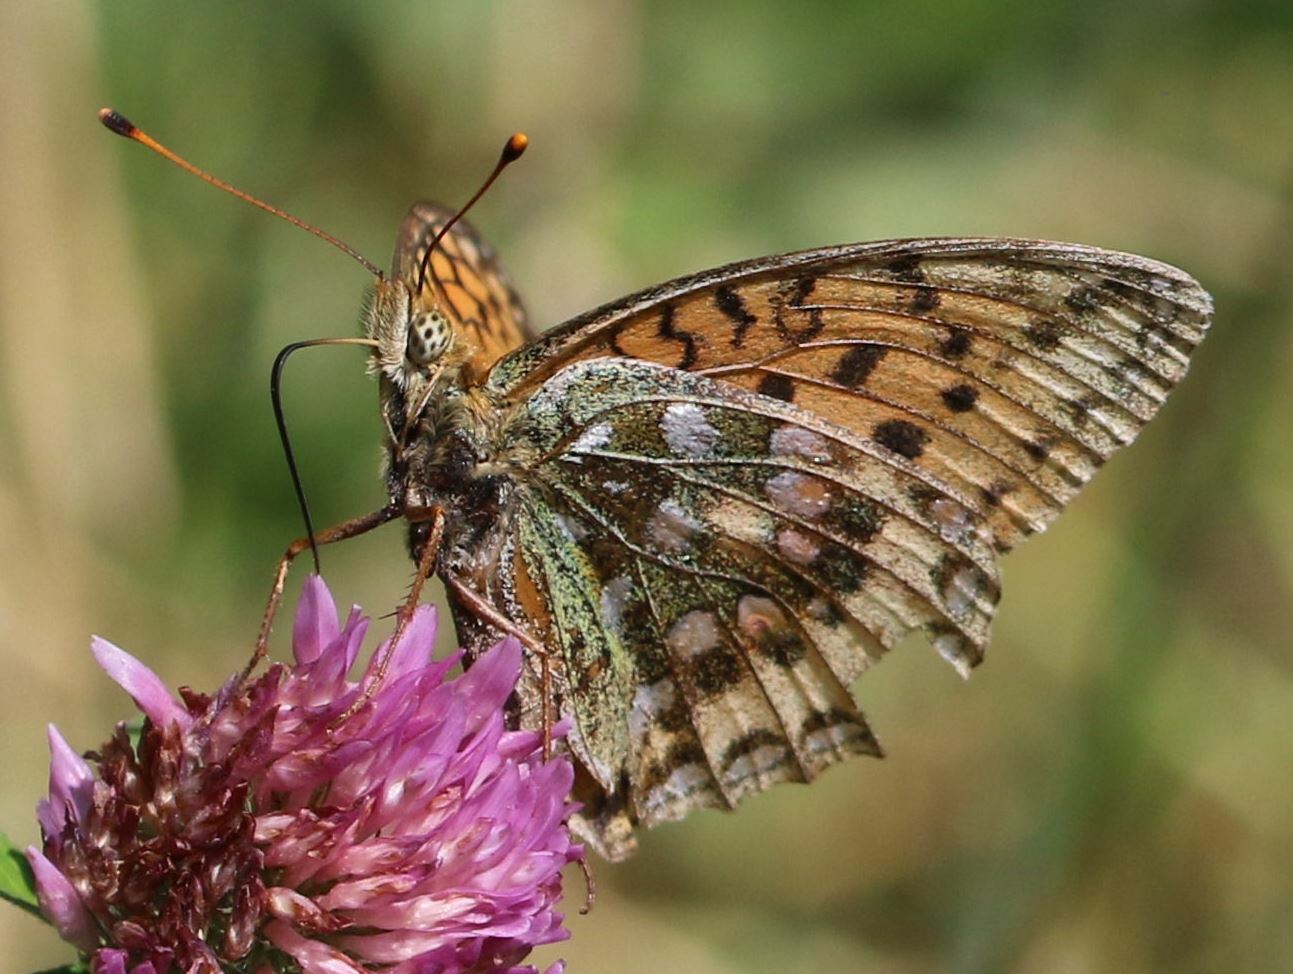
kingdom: Animalia
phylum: Arthropoda
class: Insecta
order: Lepidoptera
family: Nymphalidae
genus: Speyeria
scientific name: Speyeria aglaja
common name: Dark green fritillary
